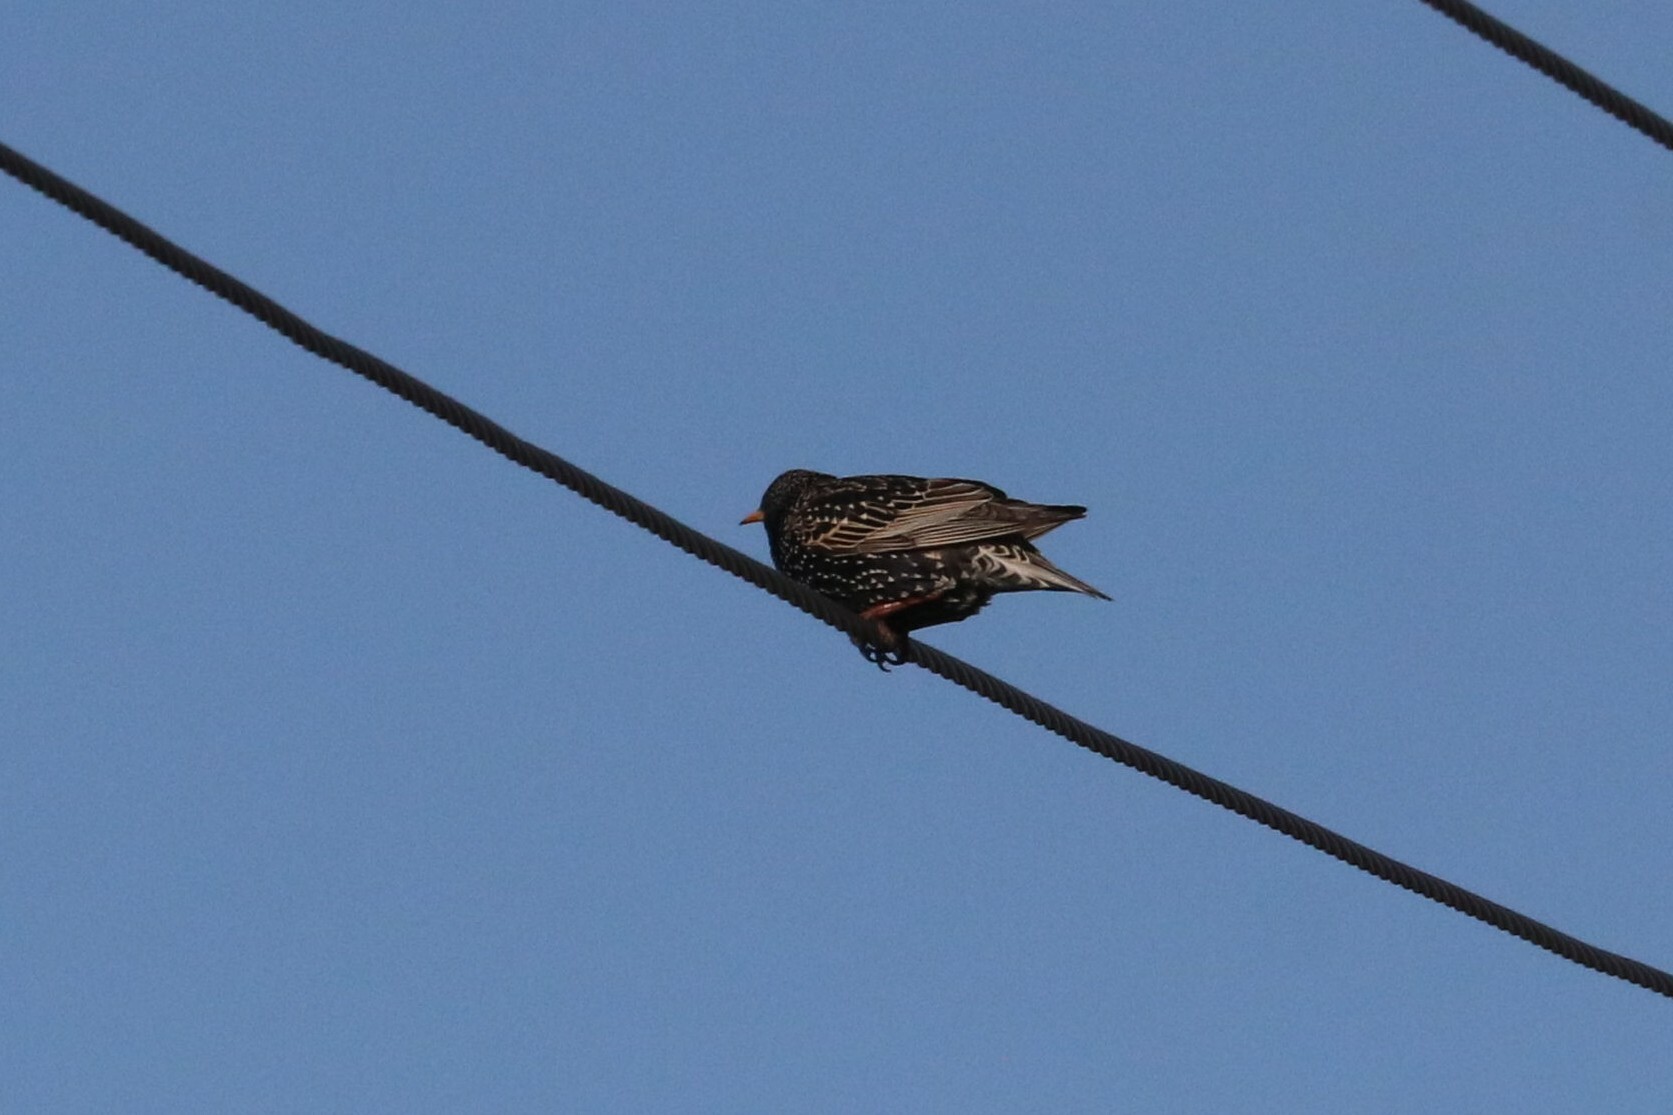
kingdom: Animalia
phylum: Chordata
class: Aves
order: Passeriformes
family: Sturnidae
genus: Sturnus
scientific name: Sturnus vulgaris
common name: Common starling
